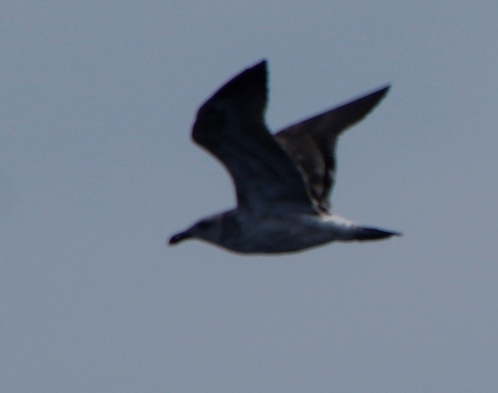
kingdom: Animalia
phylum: Chordata
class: Aves
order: Charadriiformes
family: Laridae
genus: Larus
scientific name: Larus dominicanus
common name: Kelp gull
